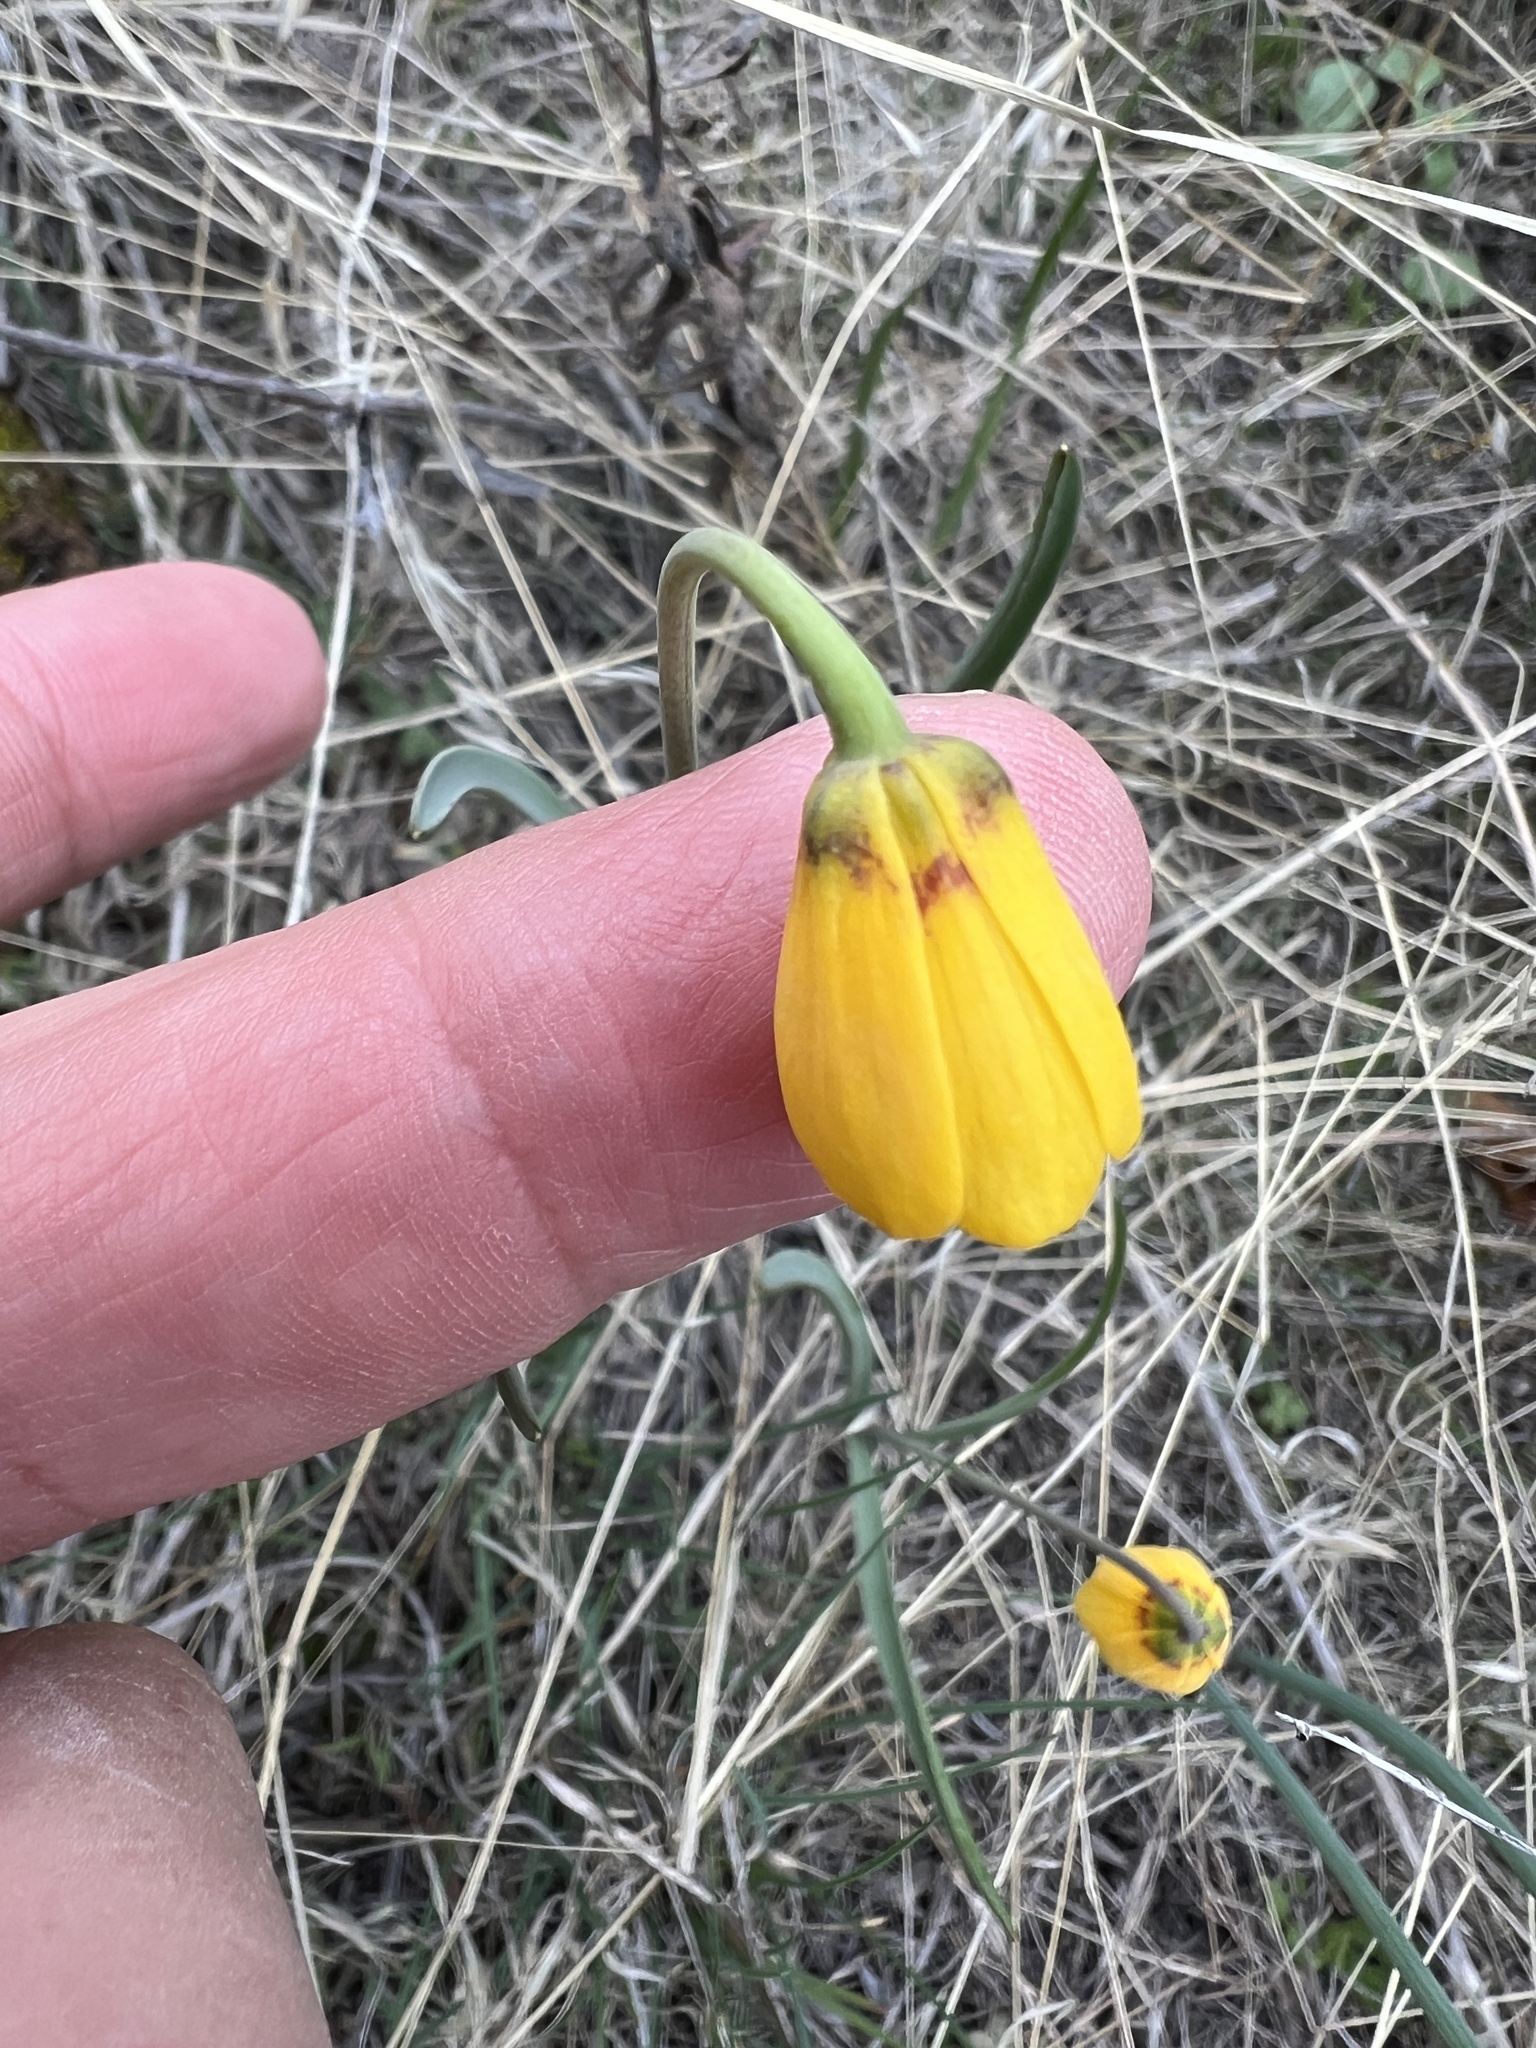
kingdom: Plantae
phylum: Tracheophyta
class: Liliopsida
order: Liliales
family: Liliaceae
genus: Fritillaria
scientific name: Fritillaria pudica
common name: Yellow fritillary
